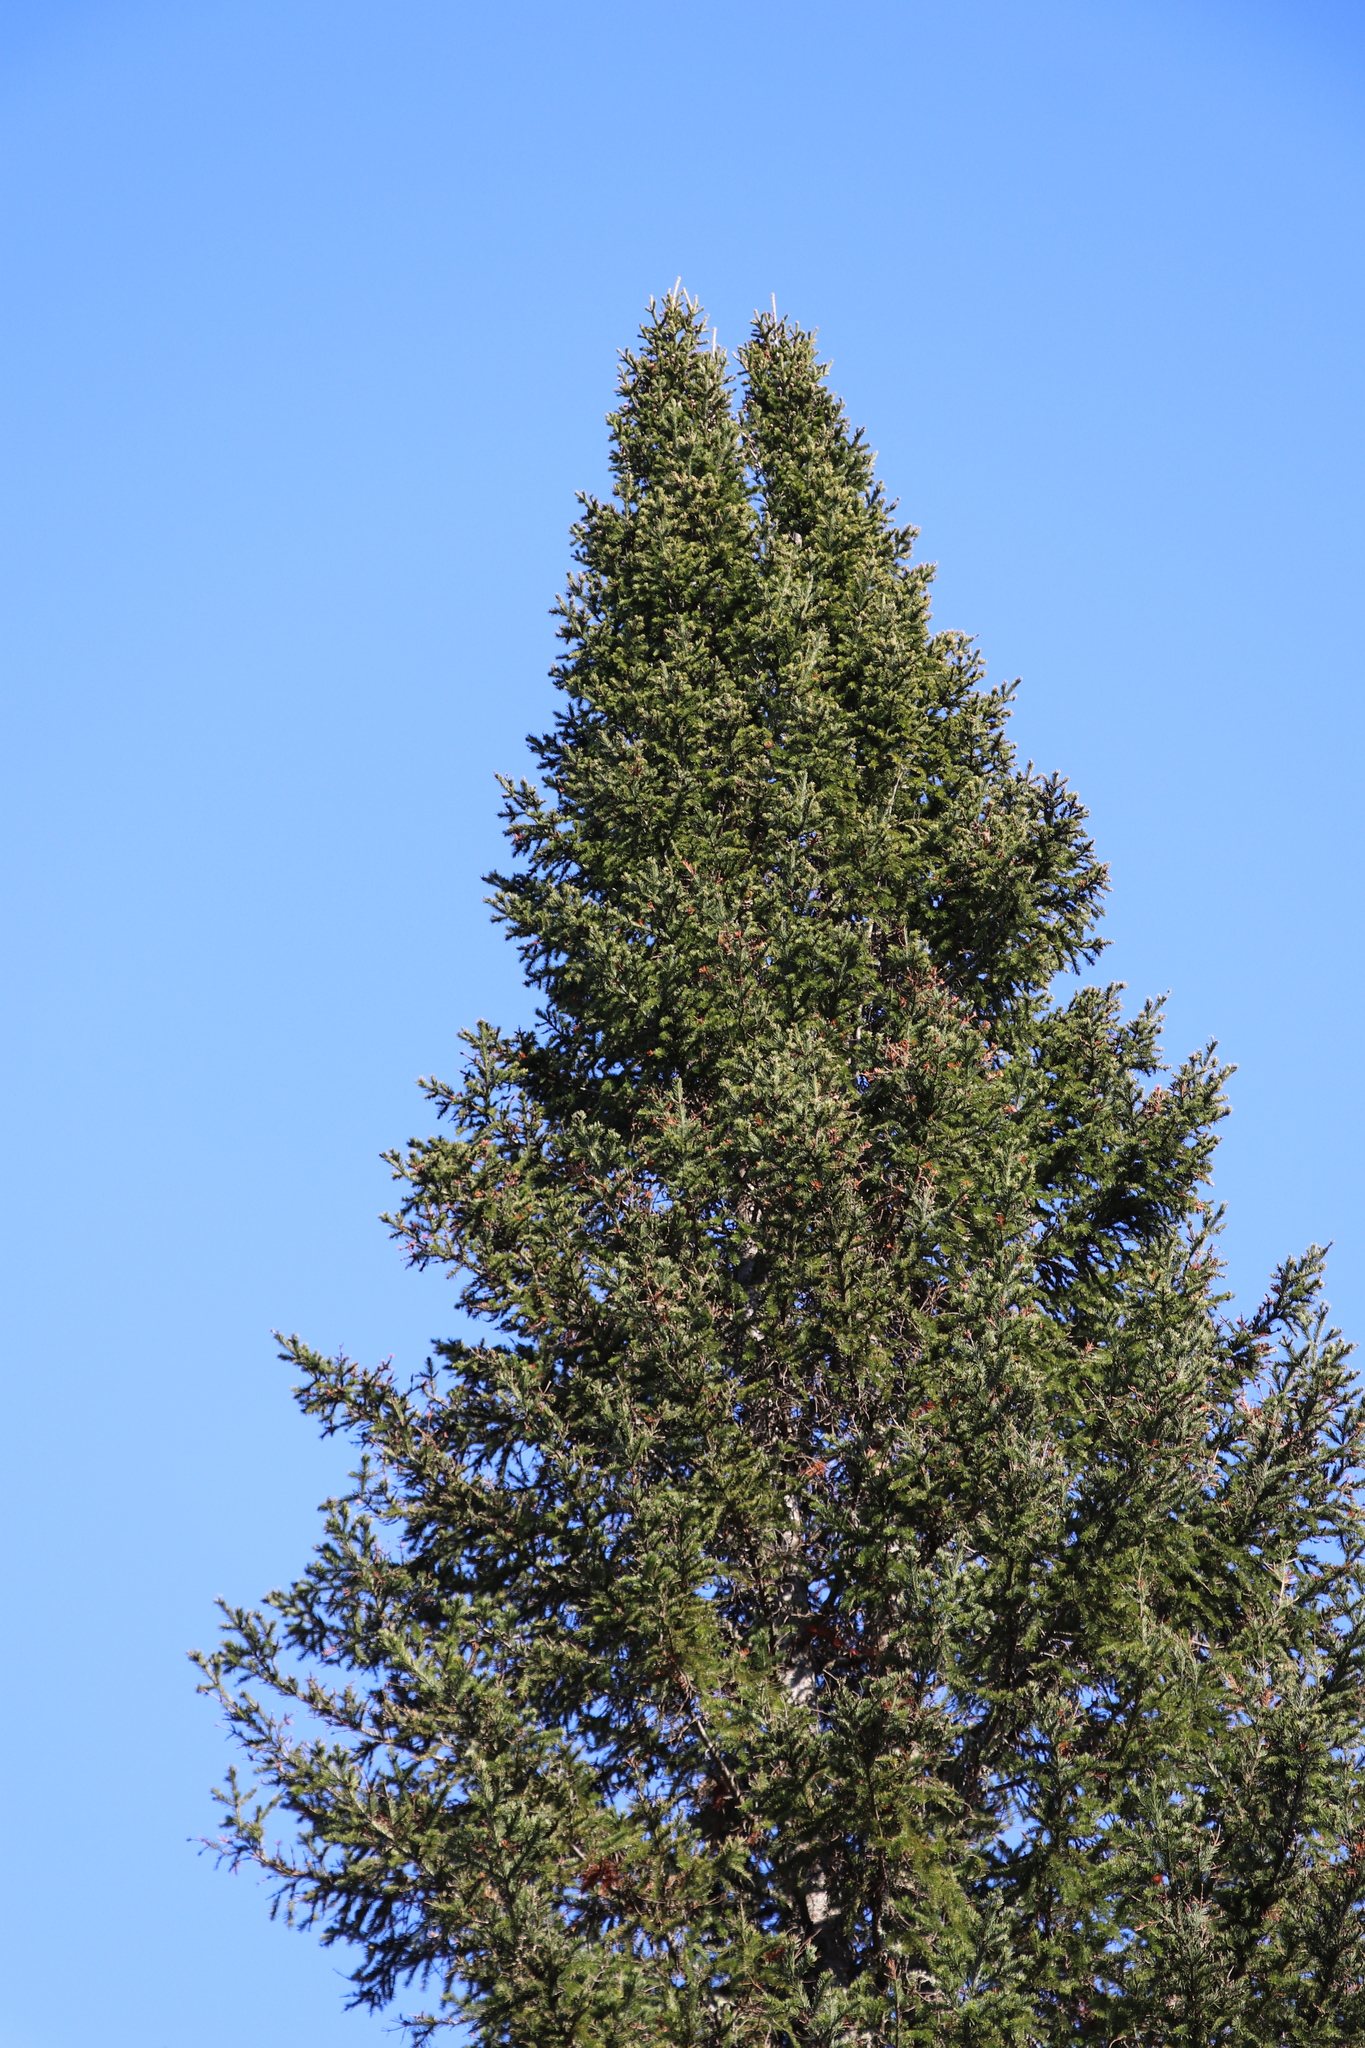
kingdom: Plantae
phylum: Tracheophyta
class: Pinopsida
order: Pinales
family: Pinaceae
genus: Abies
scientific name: Abies sibirica
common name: Siberian fir
